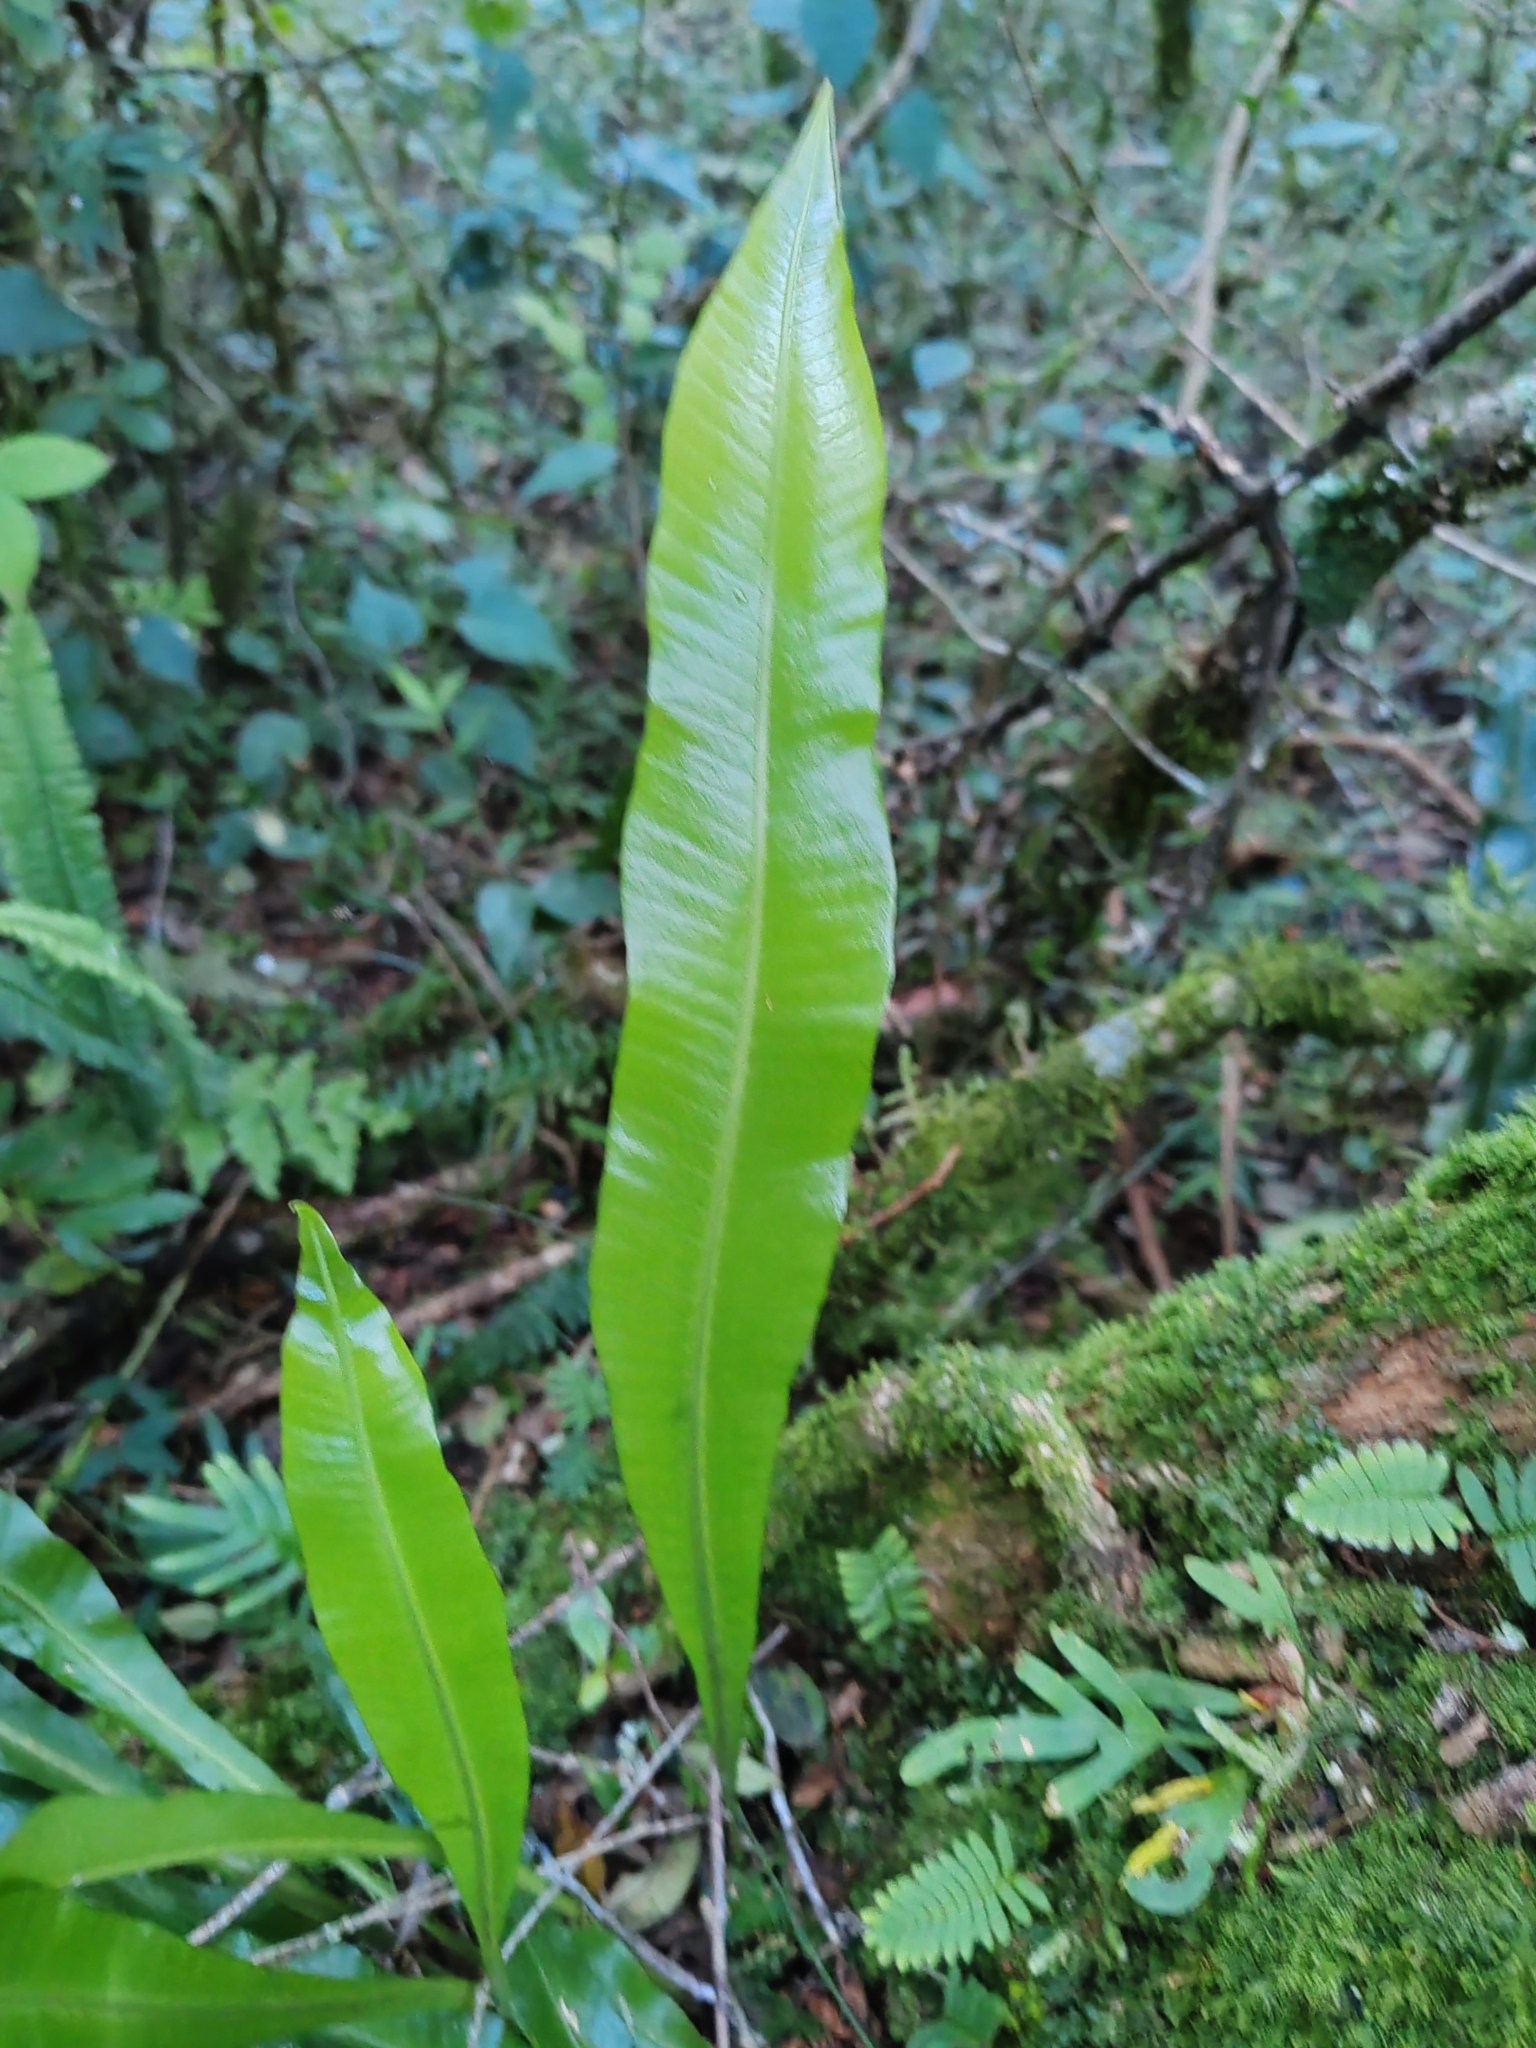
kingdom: Plantae
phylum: Tracheophyta
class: Polypodiopsida
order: Polypodiales
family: Polypodiaceae
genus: Campyloneurum
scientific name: Campyloneurum nitidum
